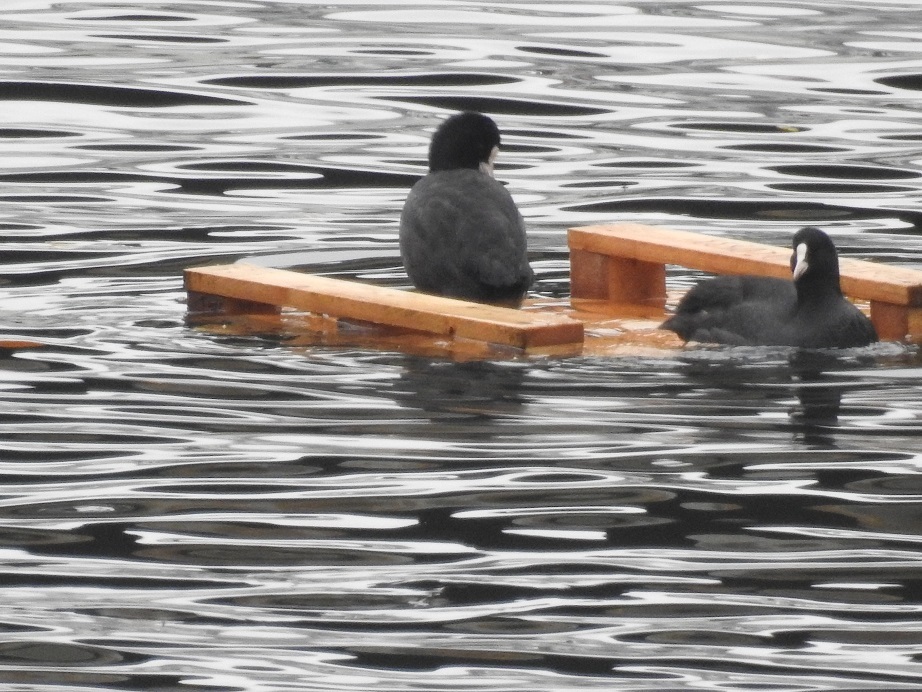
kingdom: Animalia
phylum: Chordata
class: Aves
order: Gruiformes
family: Rallidae
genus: Fulica
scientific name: Fulica atra
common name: Eurasian coot
